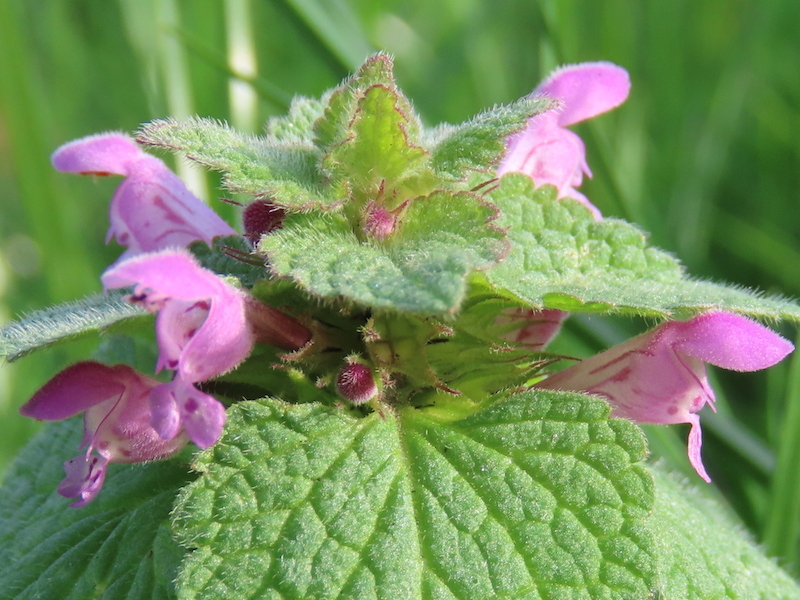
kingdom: Plantae
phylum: Tracheophyta
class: Magnoliopsida
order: Lamiales
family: Lamiaceae
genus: Lamium
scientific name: Lamium purpureum
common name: Red dead-nettle
